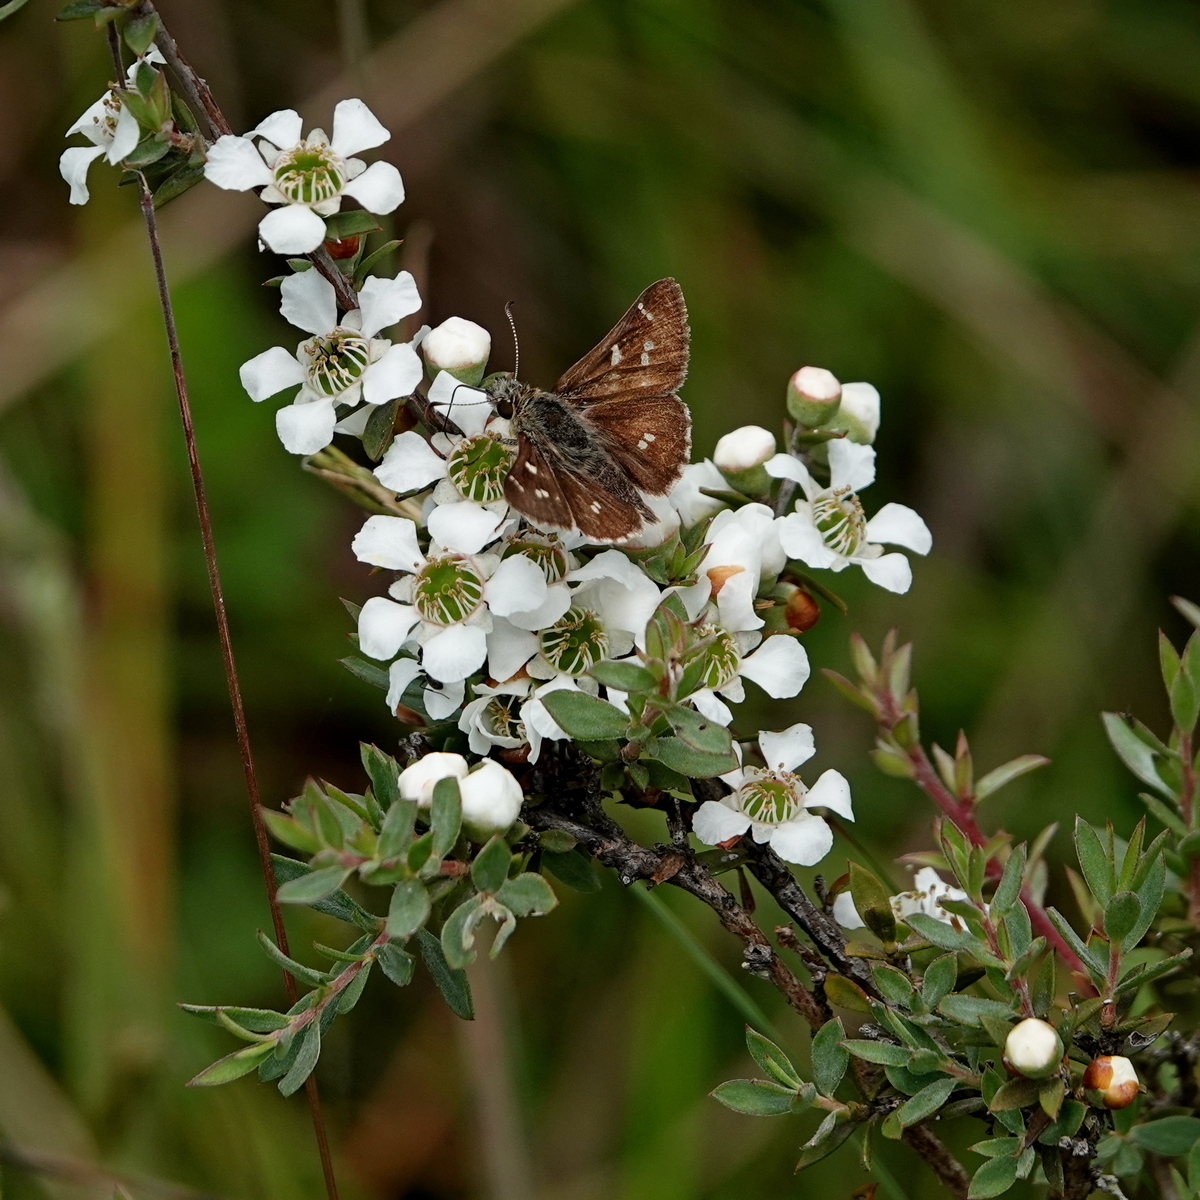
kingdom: Plantae
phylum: Tracheophyta
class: Magnoliopsida
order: Myrtales
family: Myrtaceae
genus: Leptospermum
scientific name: Leptospermum myrtifolium
